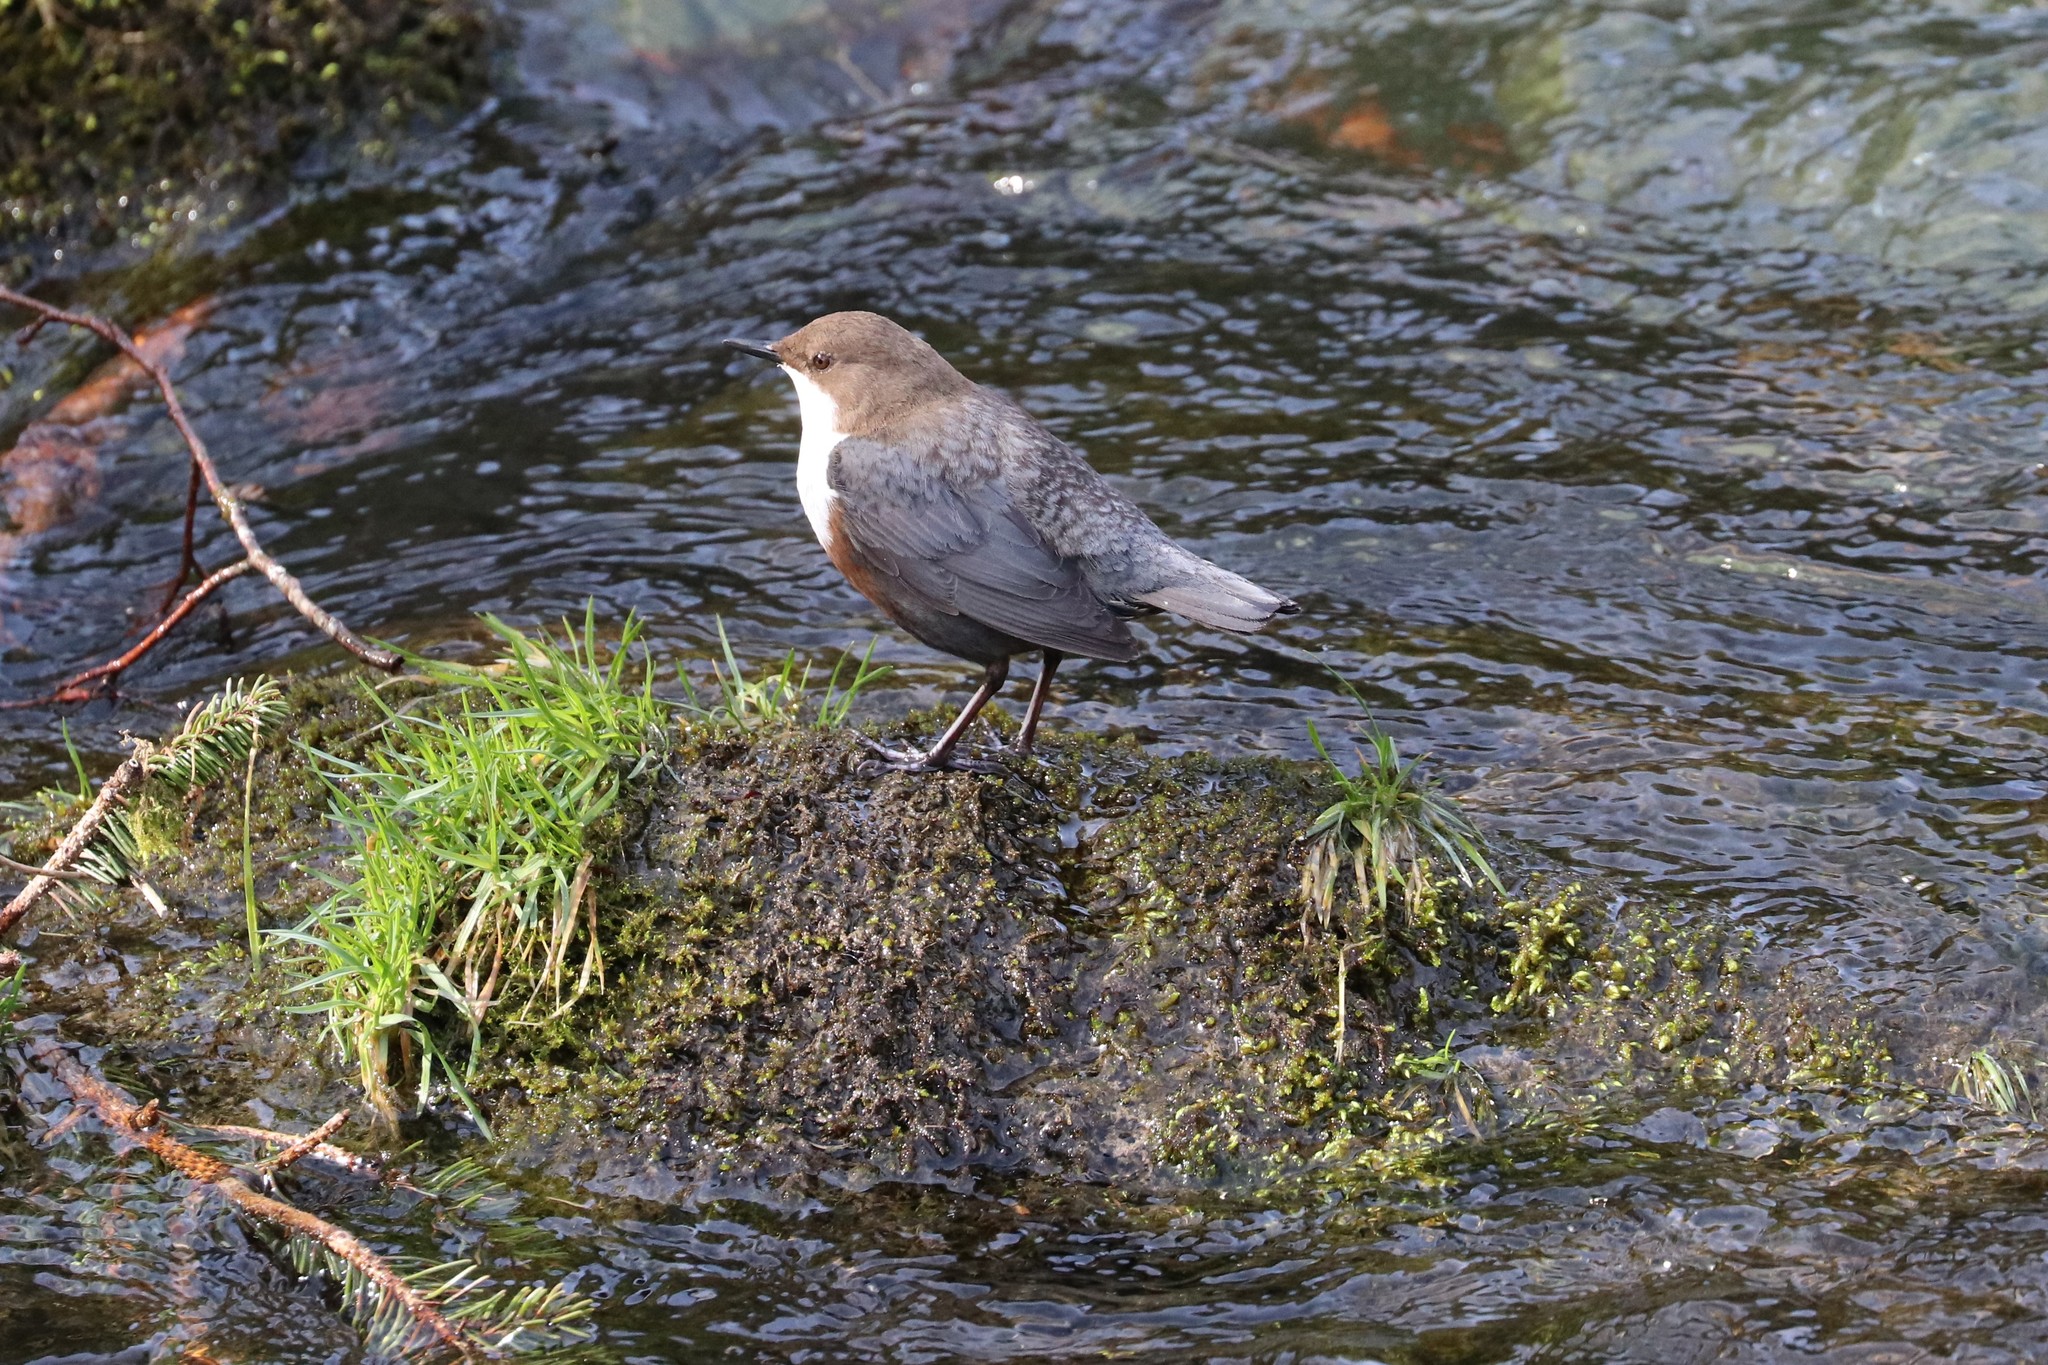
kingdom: Animalia
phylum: Chordata
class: Aves
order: Passeriformes
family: Cinclidae
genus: Cinclus
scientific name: Cinclus cinclus
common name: White-throated dipper
